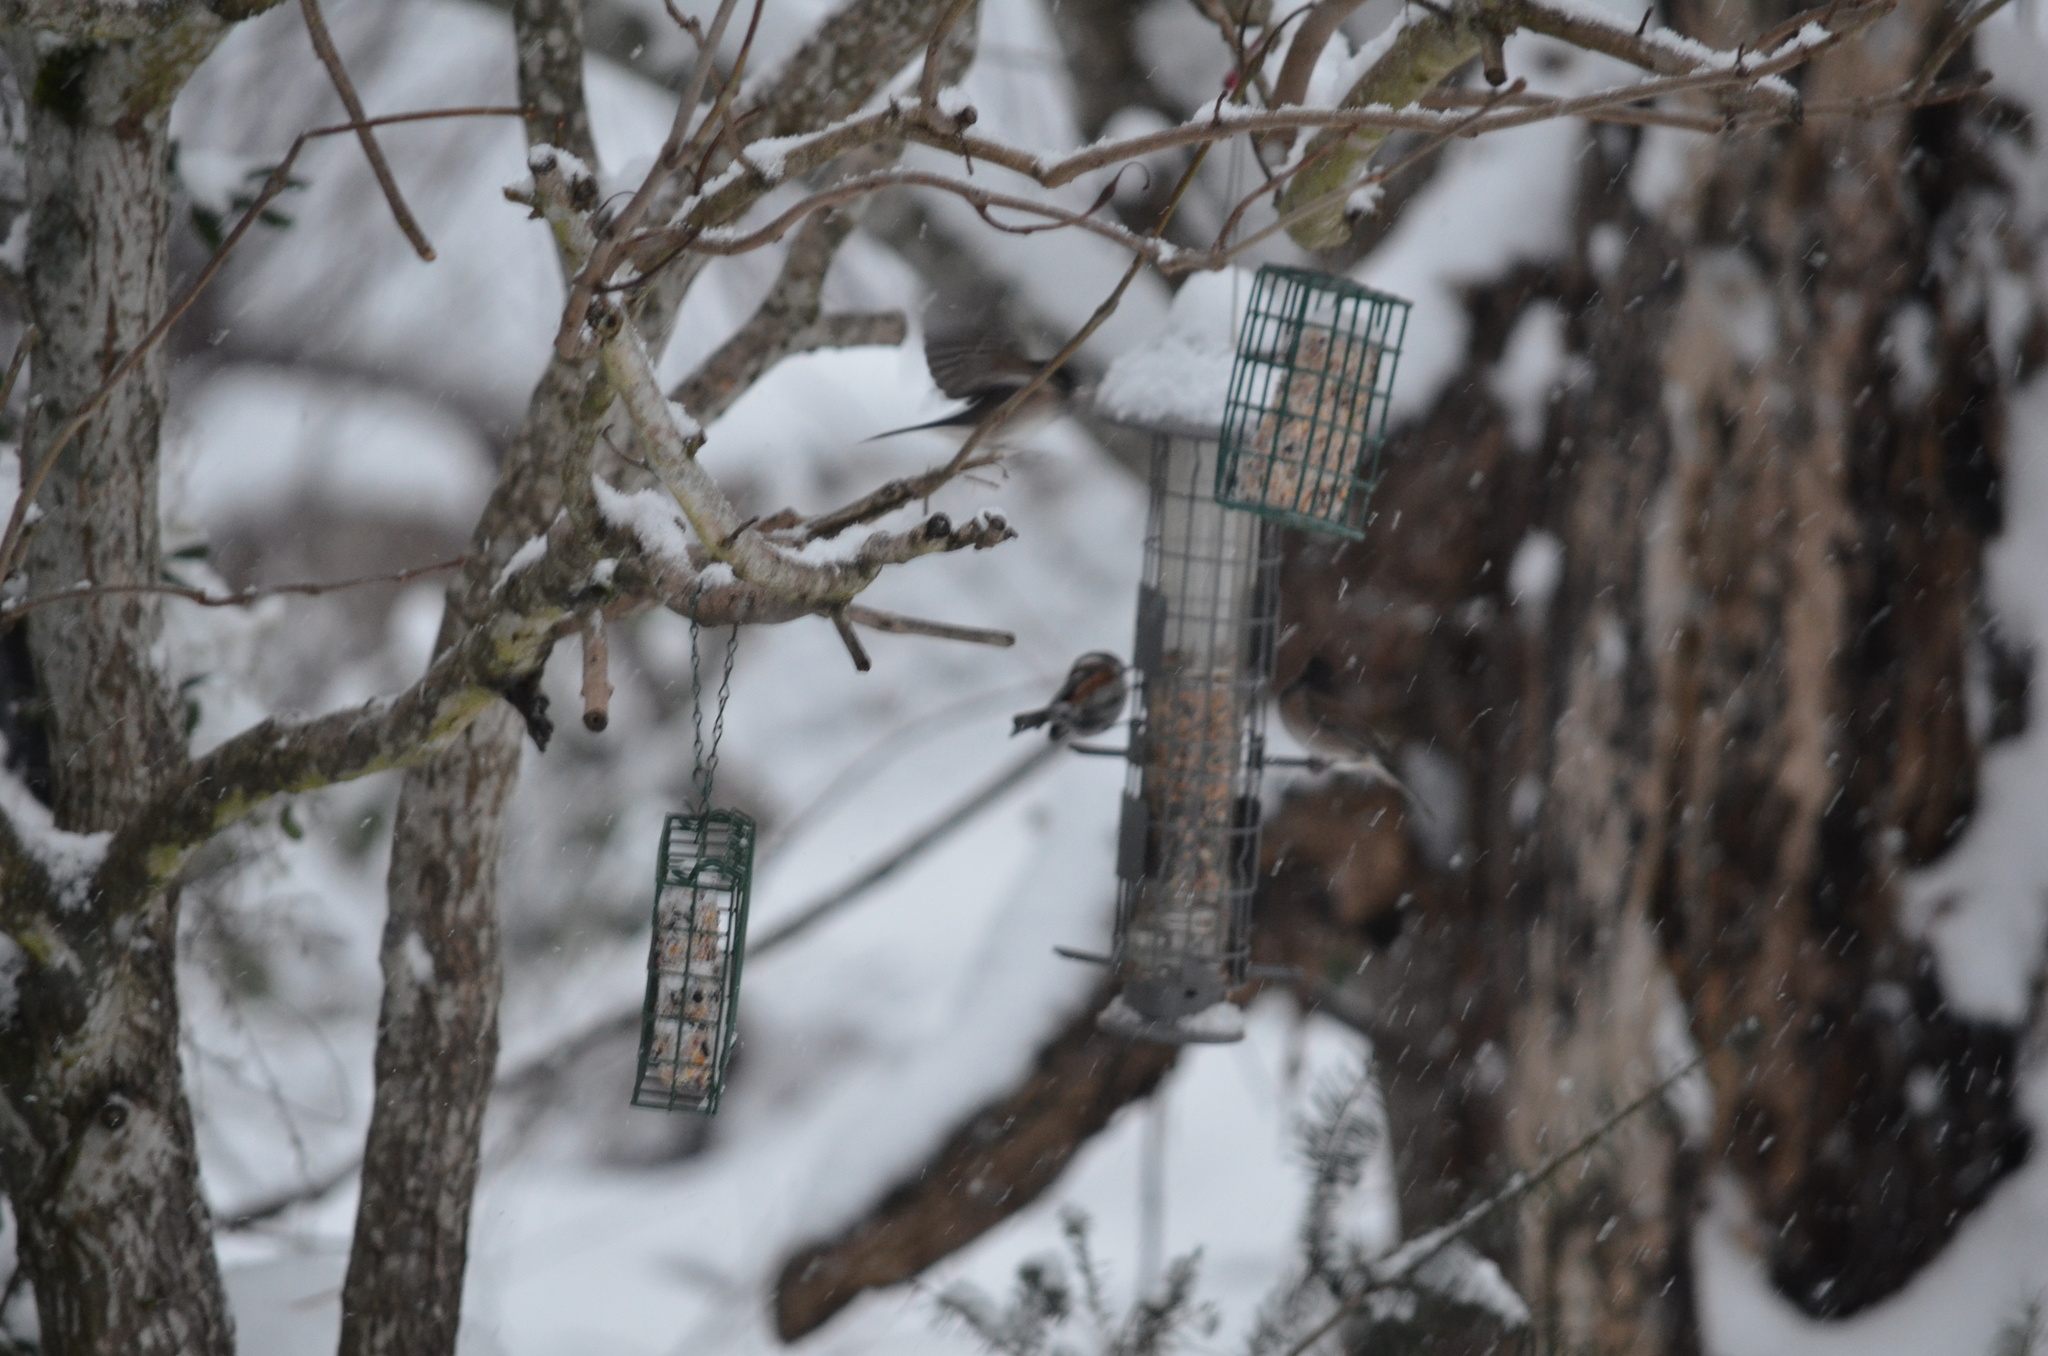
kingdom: Animalia
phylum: Chordata
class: Aves
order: Passeriformes
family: Passerellidae
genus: Junco
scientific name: Junco hyemalis
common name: Dark-eyed junco
